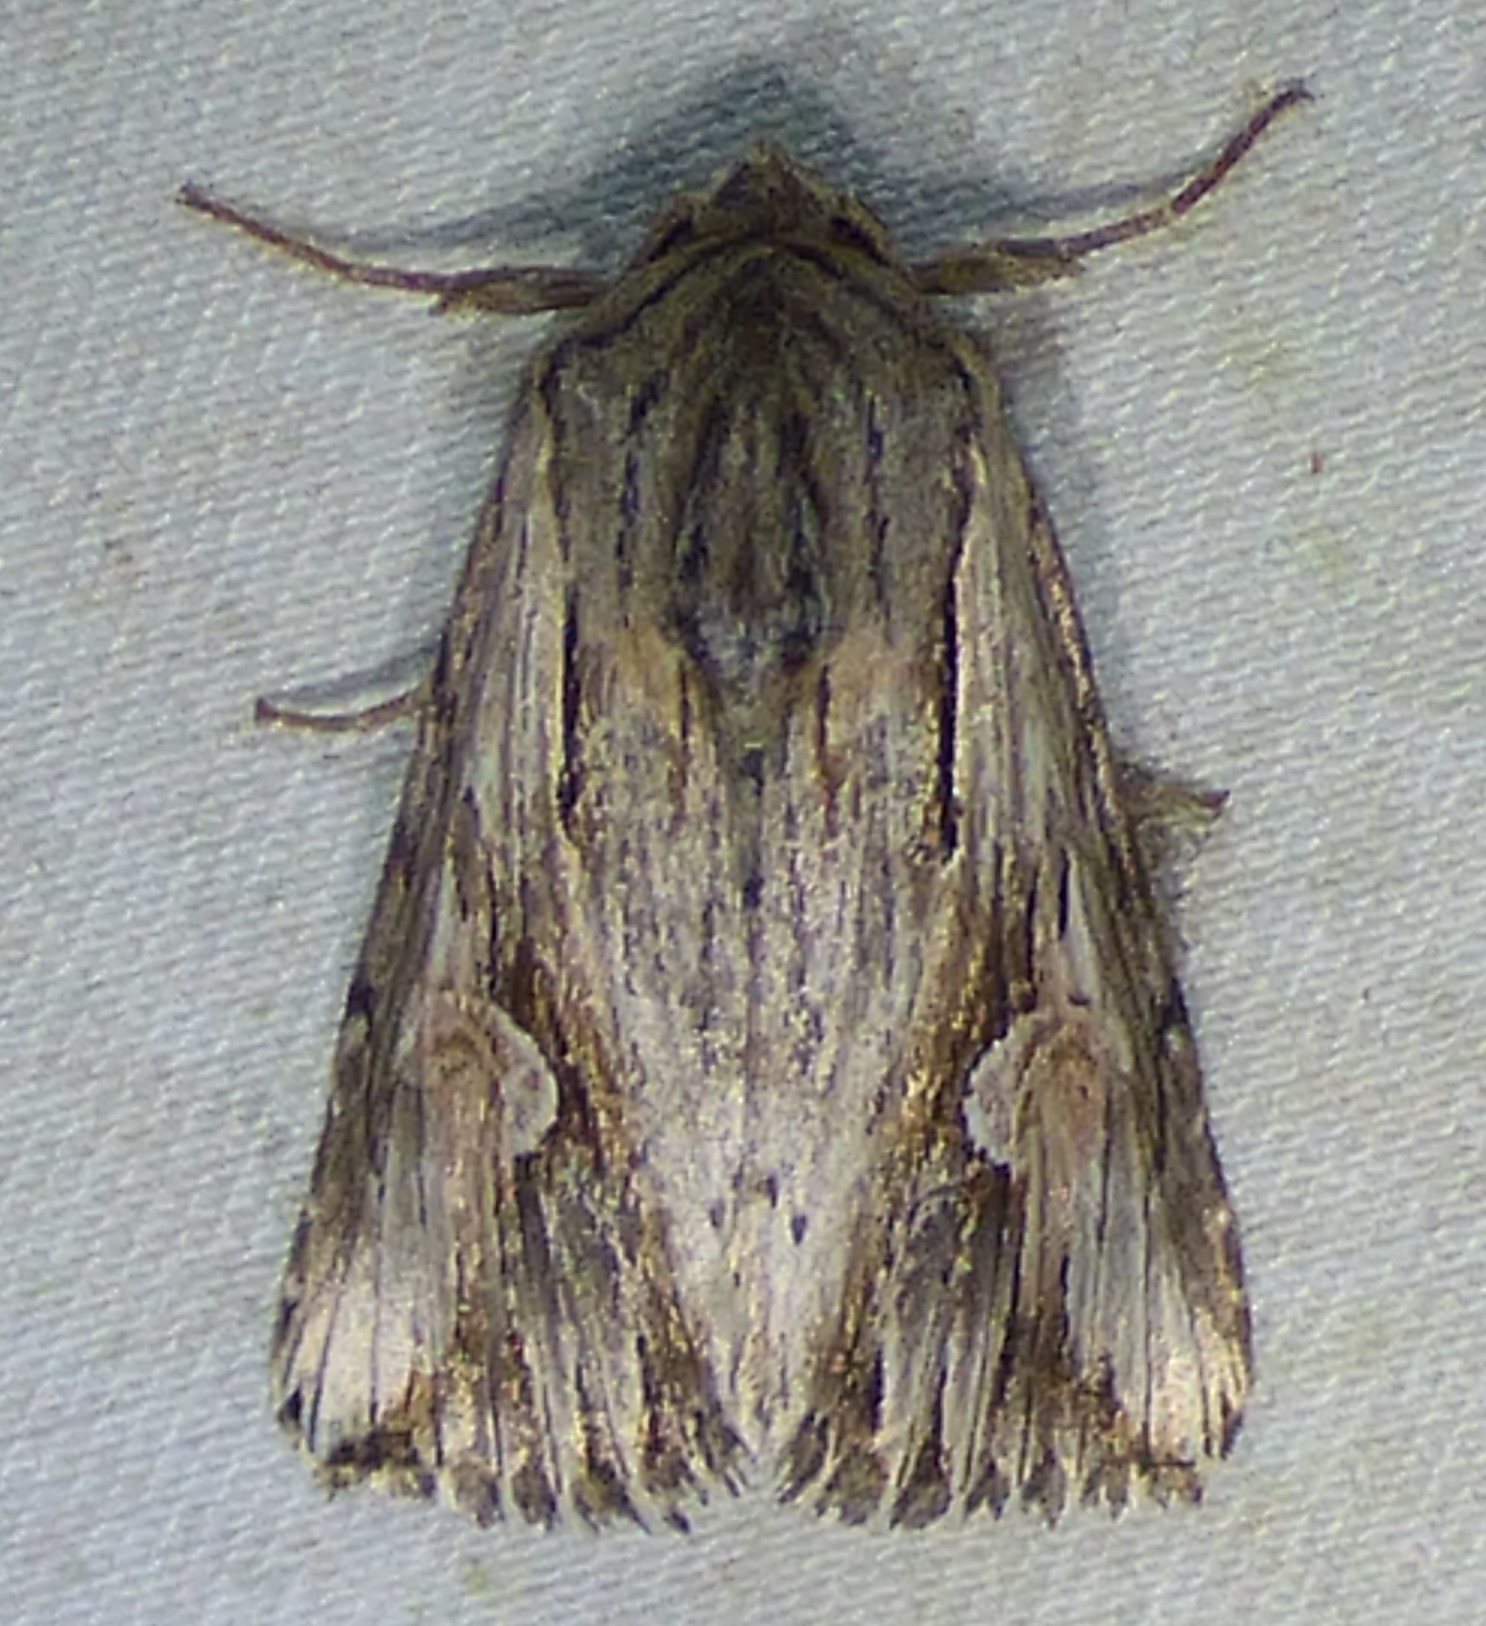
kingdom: Animalia
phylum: Arthropoda
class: Insecta
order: Lepidoptera
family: Noctuidae
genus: Nedra
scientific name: Nedra ramosula
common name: Gray half-spot
